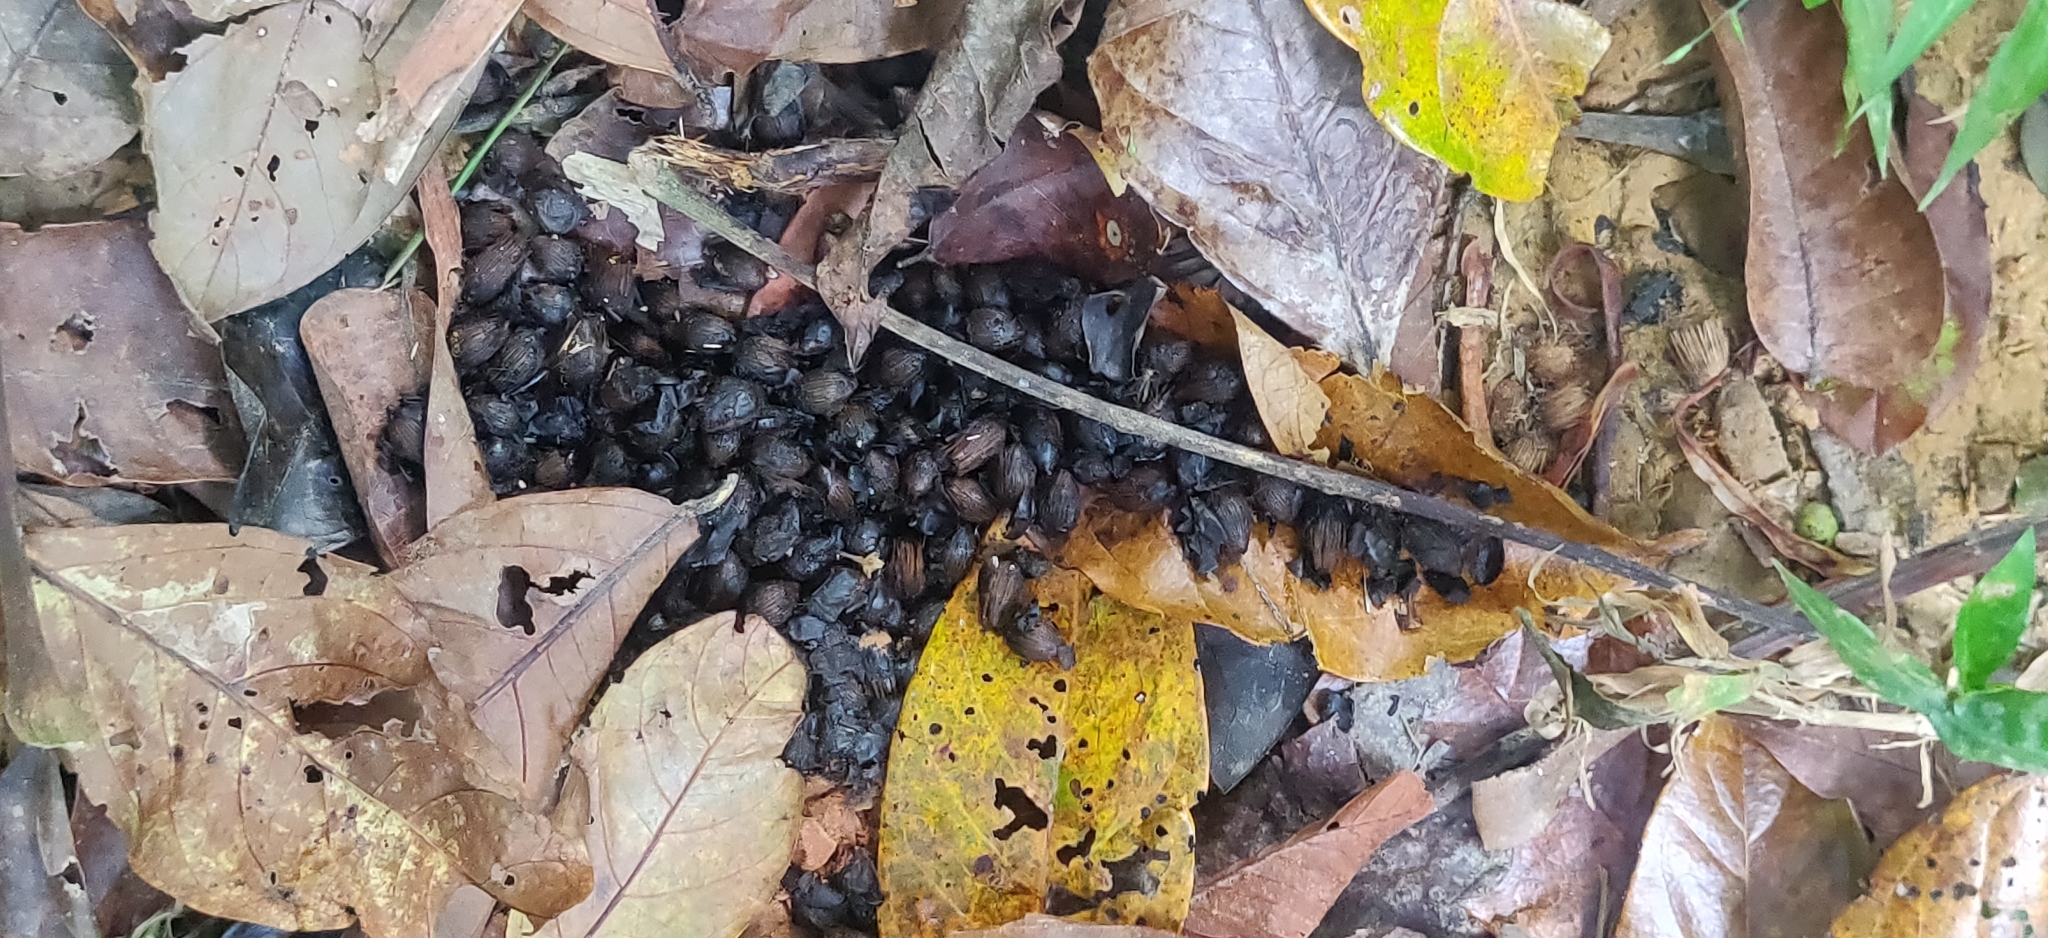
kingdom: Animalia
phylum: Chordata
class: Mammalia
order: Carnivora
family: Viverridae
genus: Paguma
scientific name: Paguma larvata
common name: Masked palm civet
